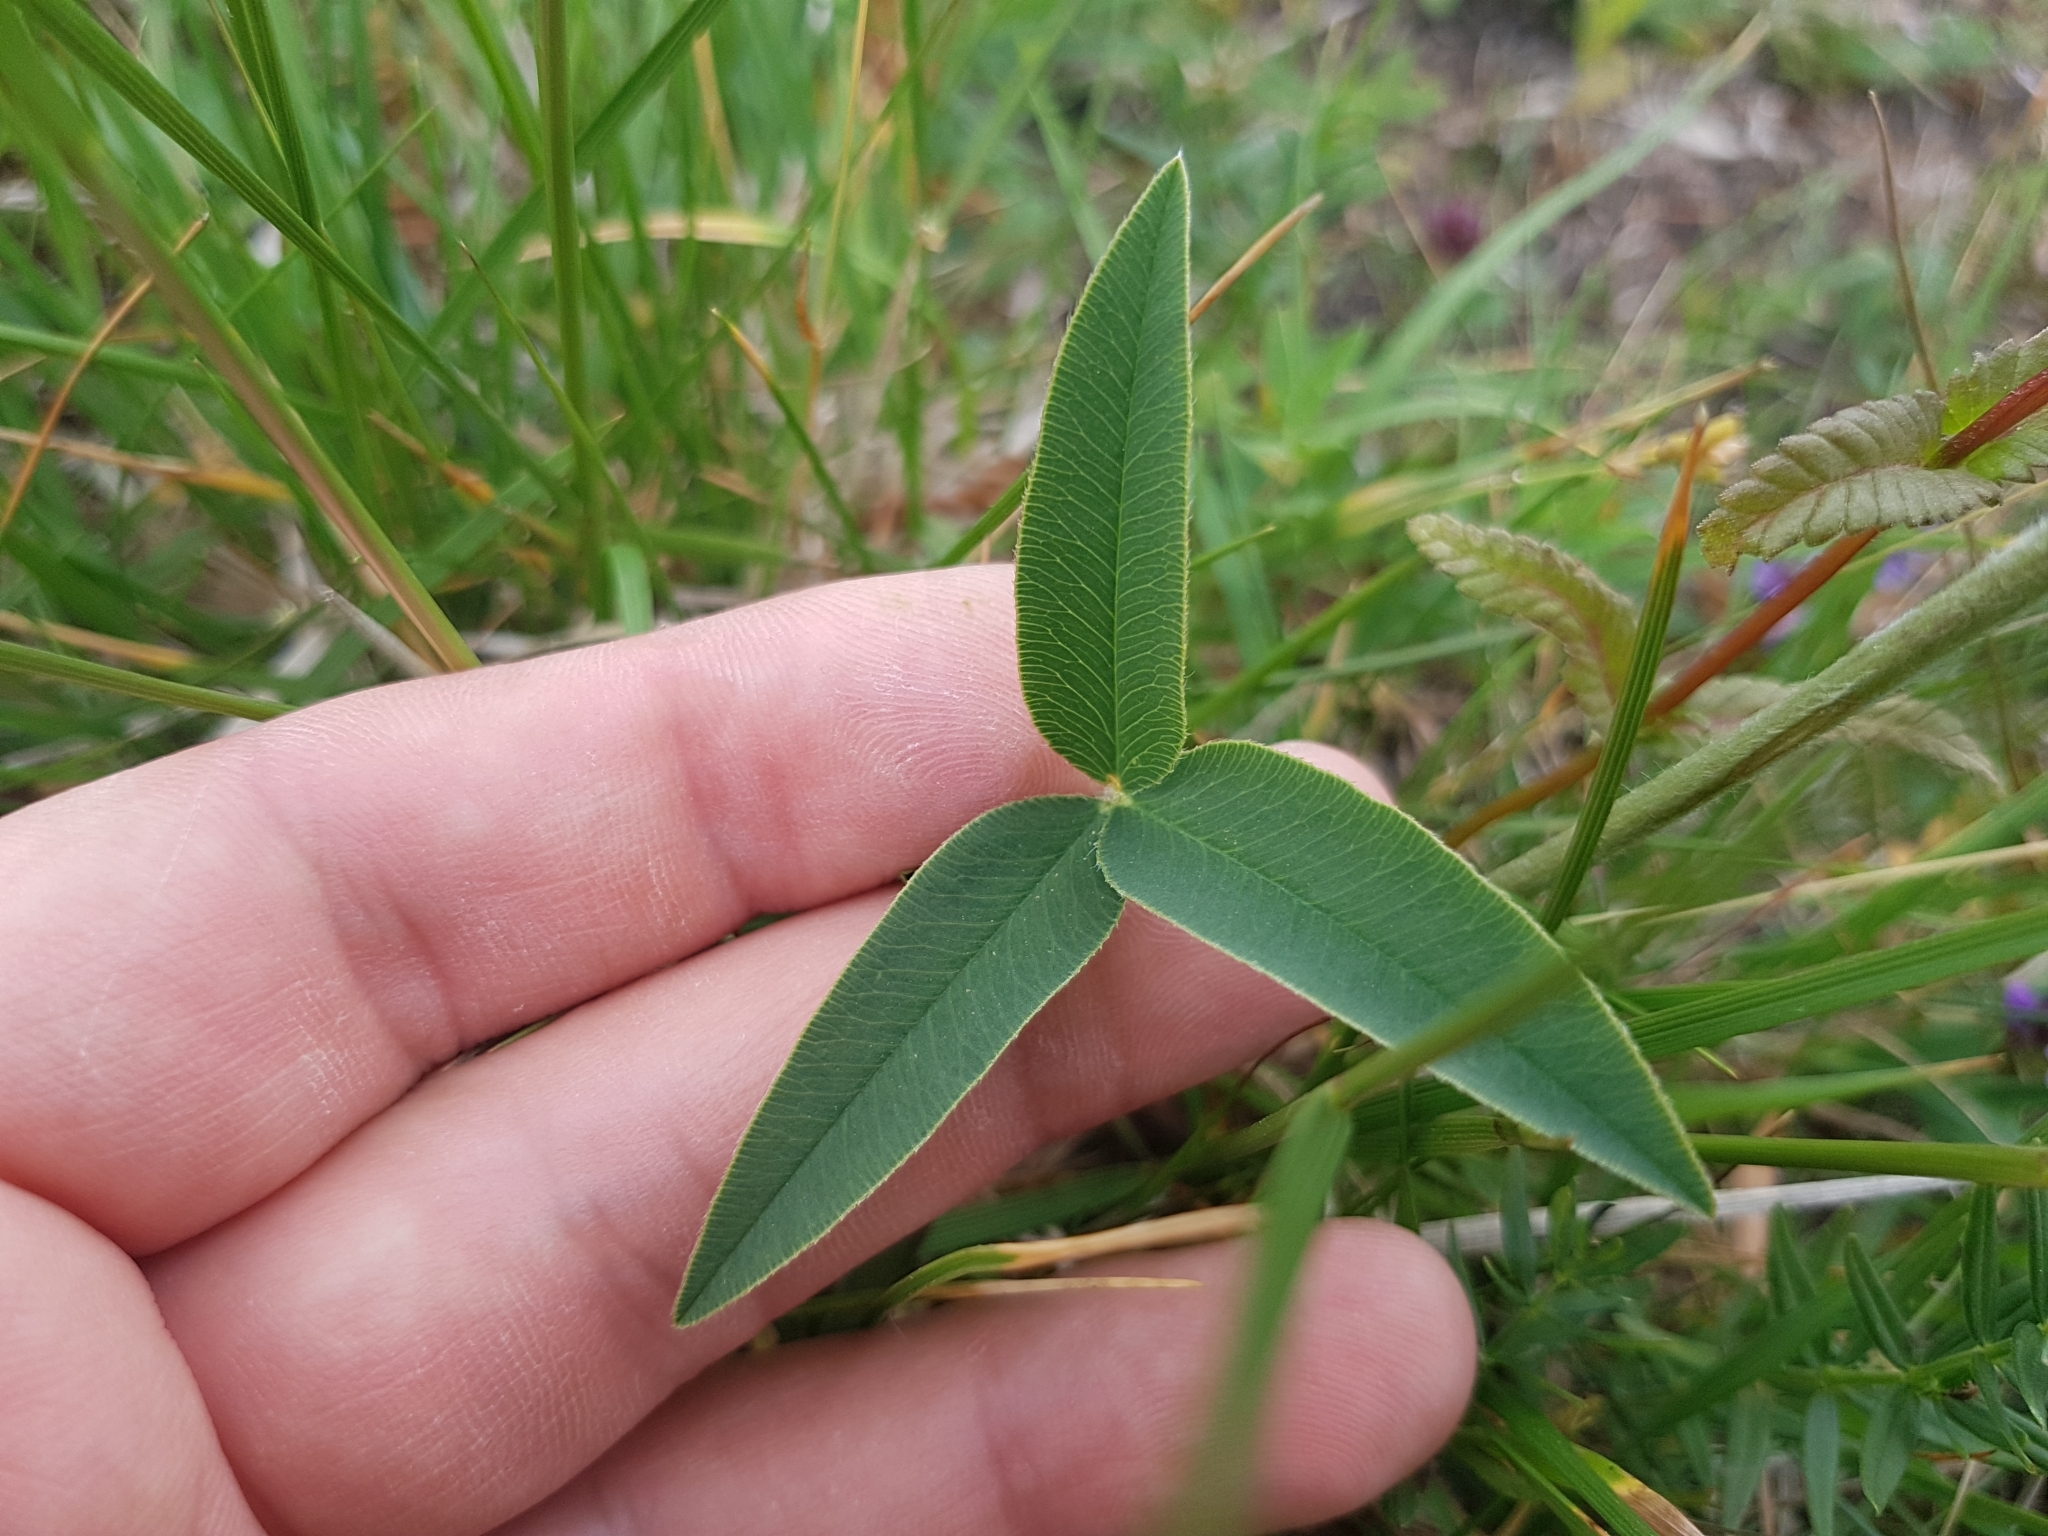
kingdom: Plantae
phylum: Tracheophyta
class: Magnoliopsida
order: Fabales
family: Fabaceae
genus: Trifolium
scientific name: Trifolium montanum
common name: Mountain clover
